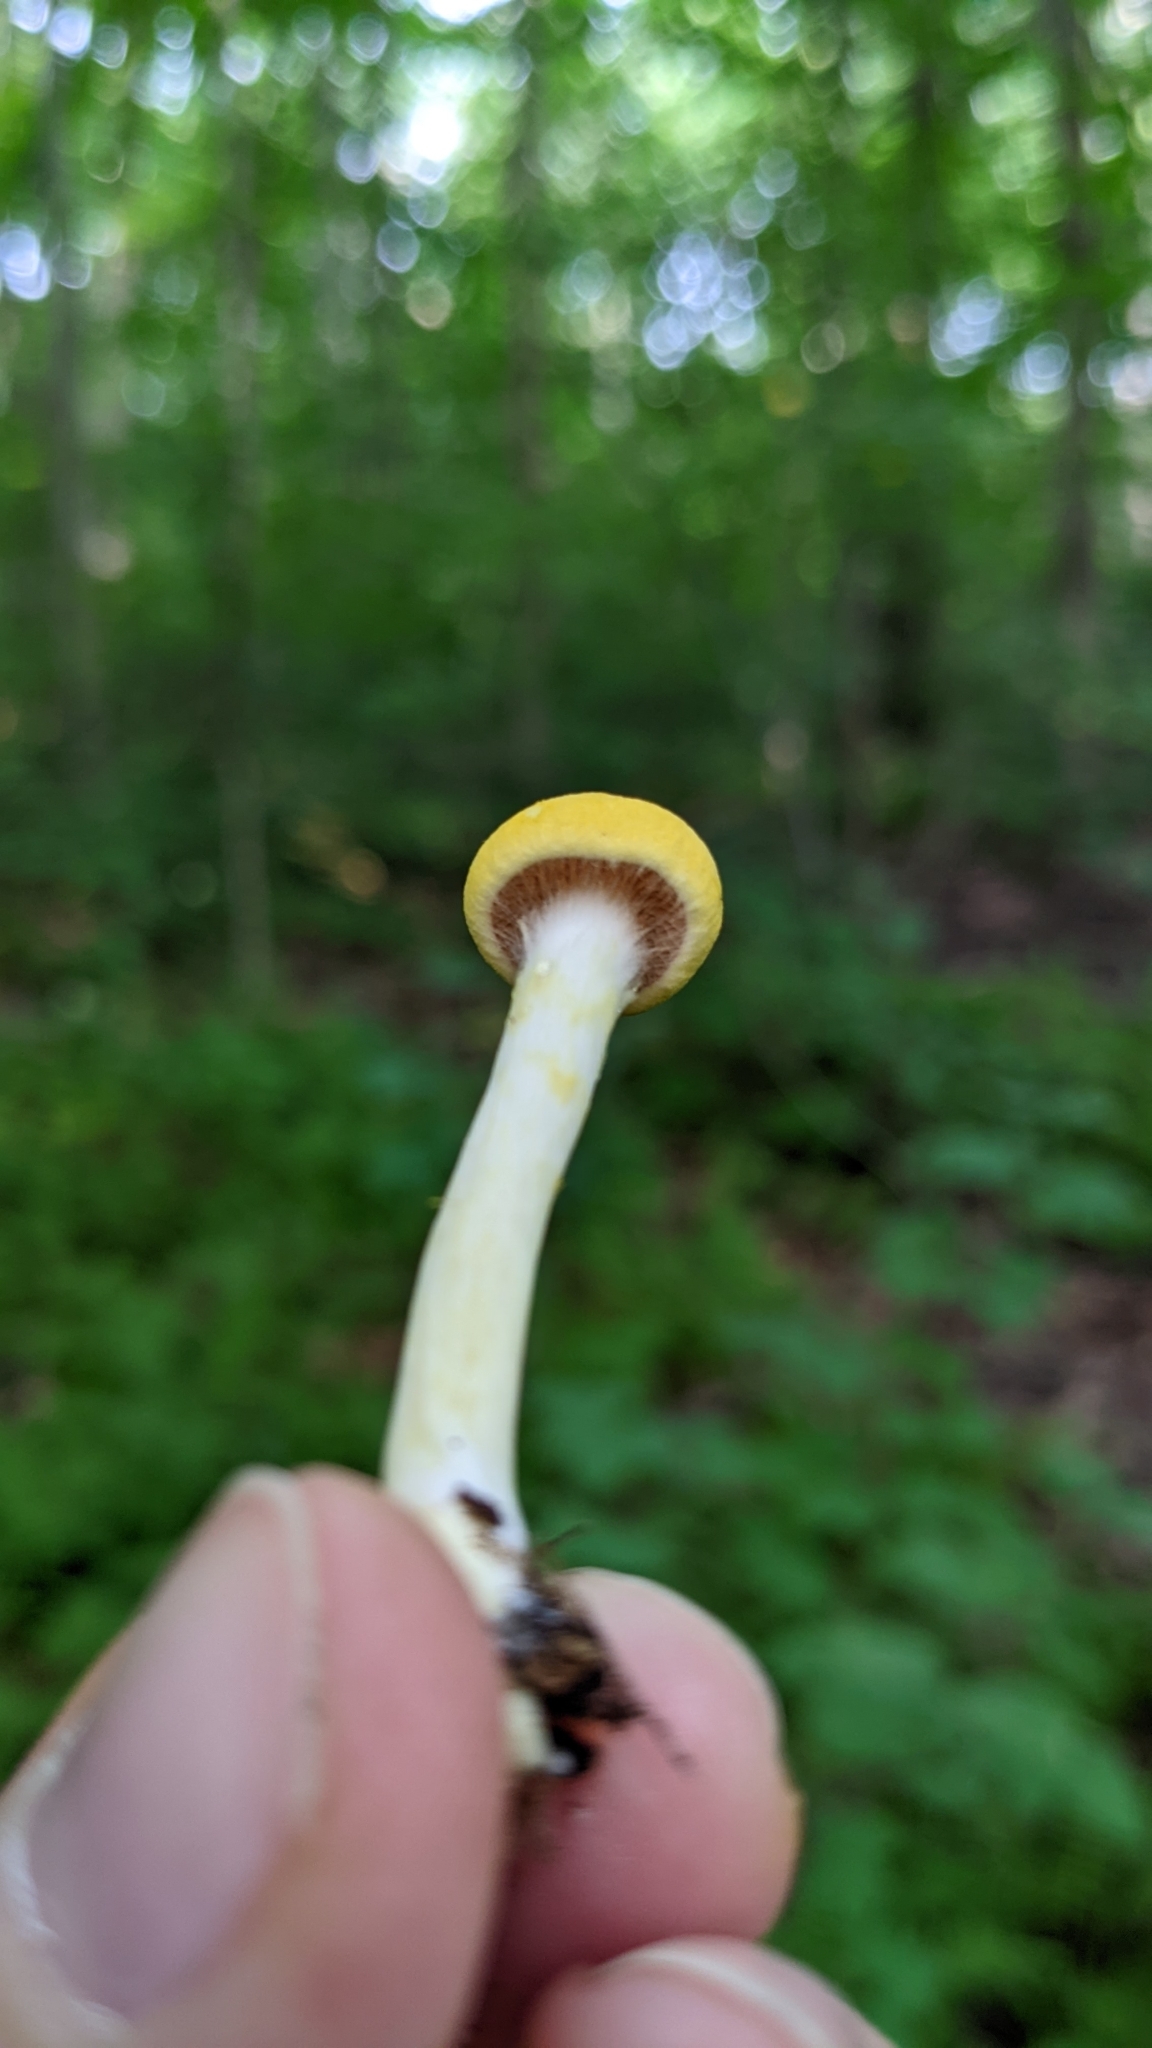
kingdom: Fungi
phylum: Basidiomycota
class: Agaricomycetes
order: Agaricales
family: Cortinariaceae
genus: Cortinarius
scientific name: Cortinarius lewisii
